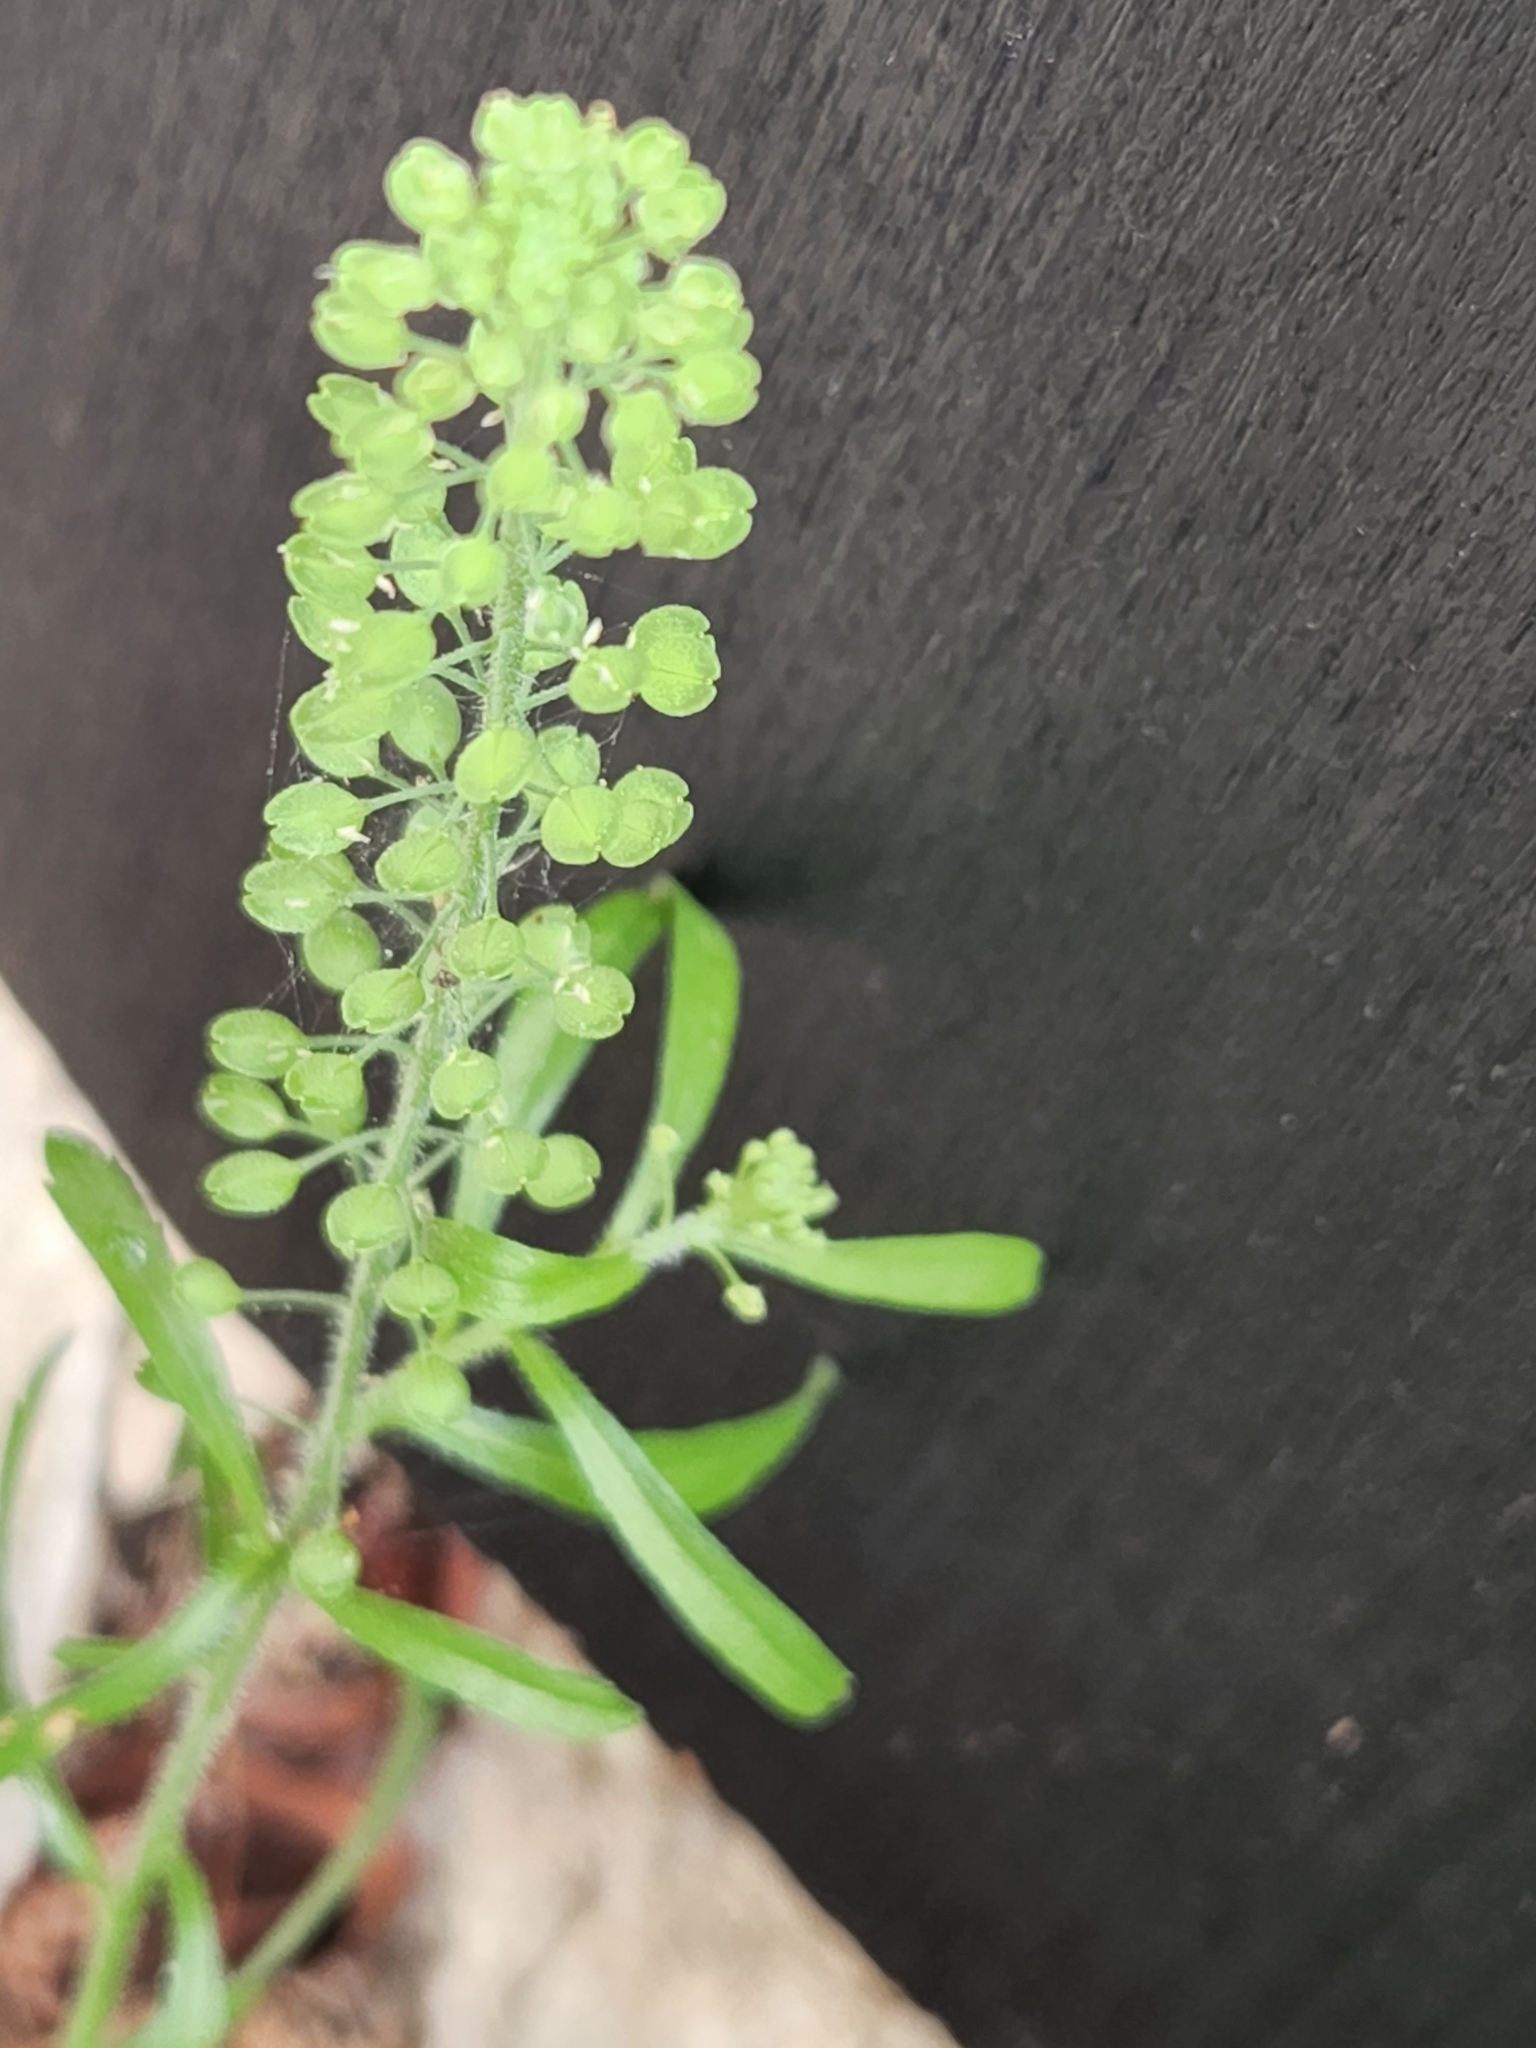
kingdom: Plantae
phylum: Tracheophyta
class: Magnoliopsida
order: Brassicales
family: Brassicaceae
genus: Lepidium
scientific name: Lepidium virginicum
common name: Least pepperwort
